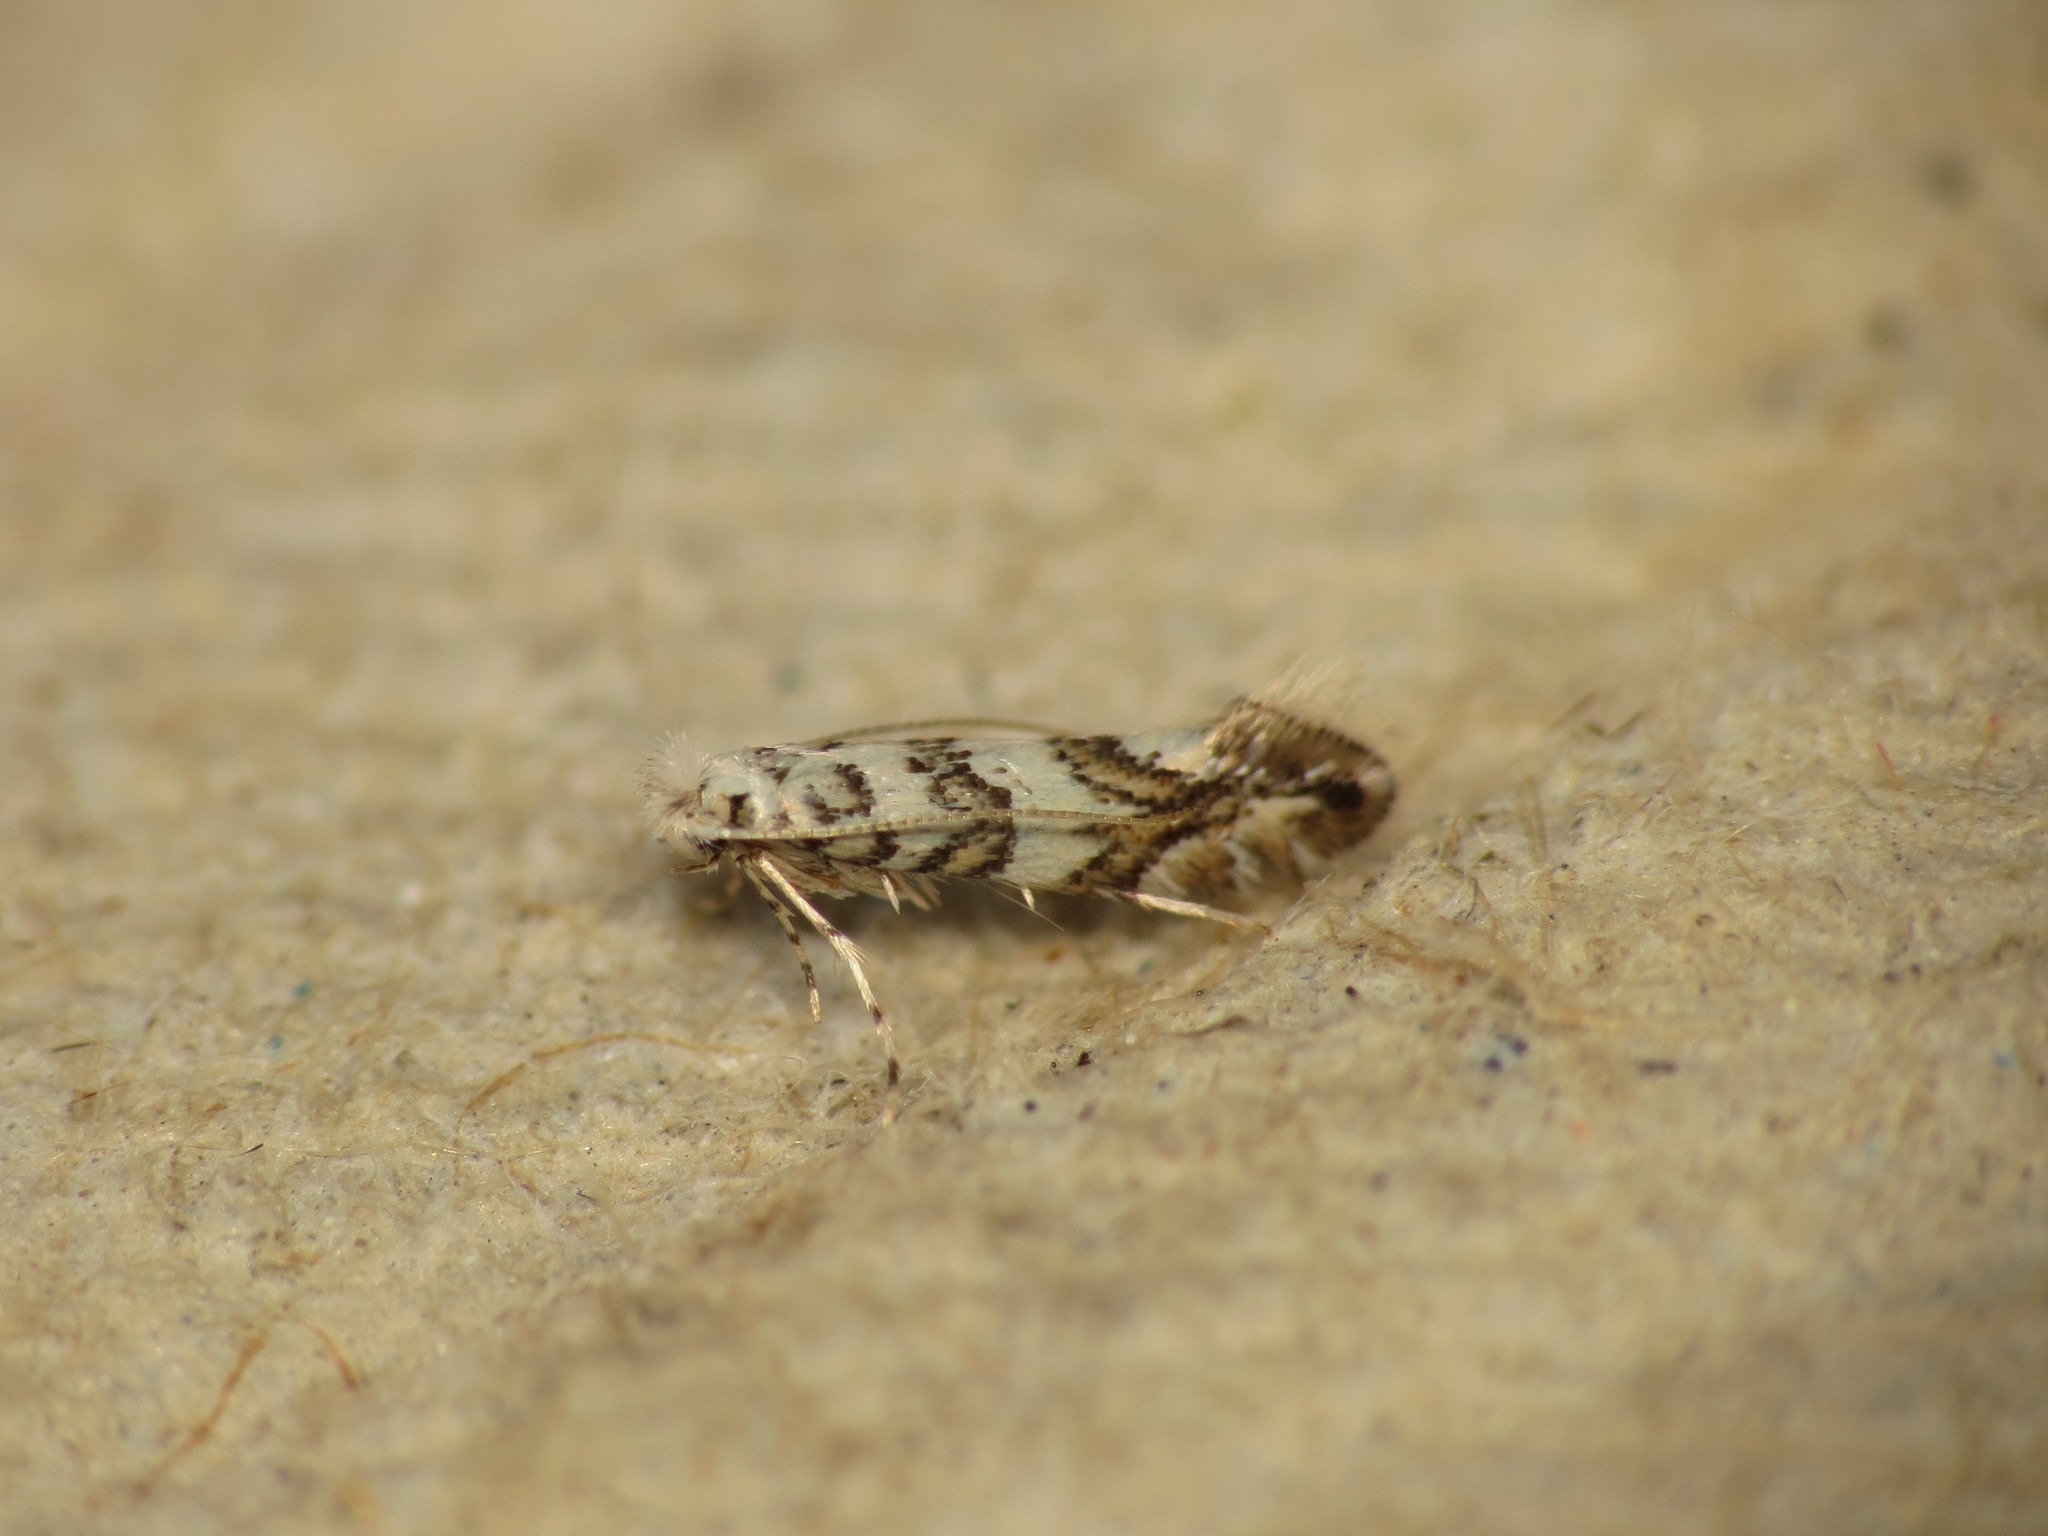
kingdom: Animalia
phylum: Arthropoda
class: Insecta
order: Lepidoptera
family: Gracillariidae
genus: Phyllonorycter
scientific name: Phyllonorycter acerifoliella
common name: Maple midget
